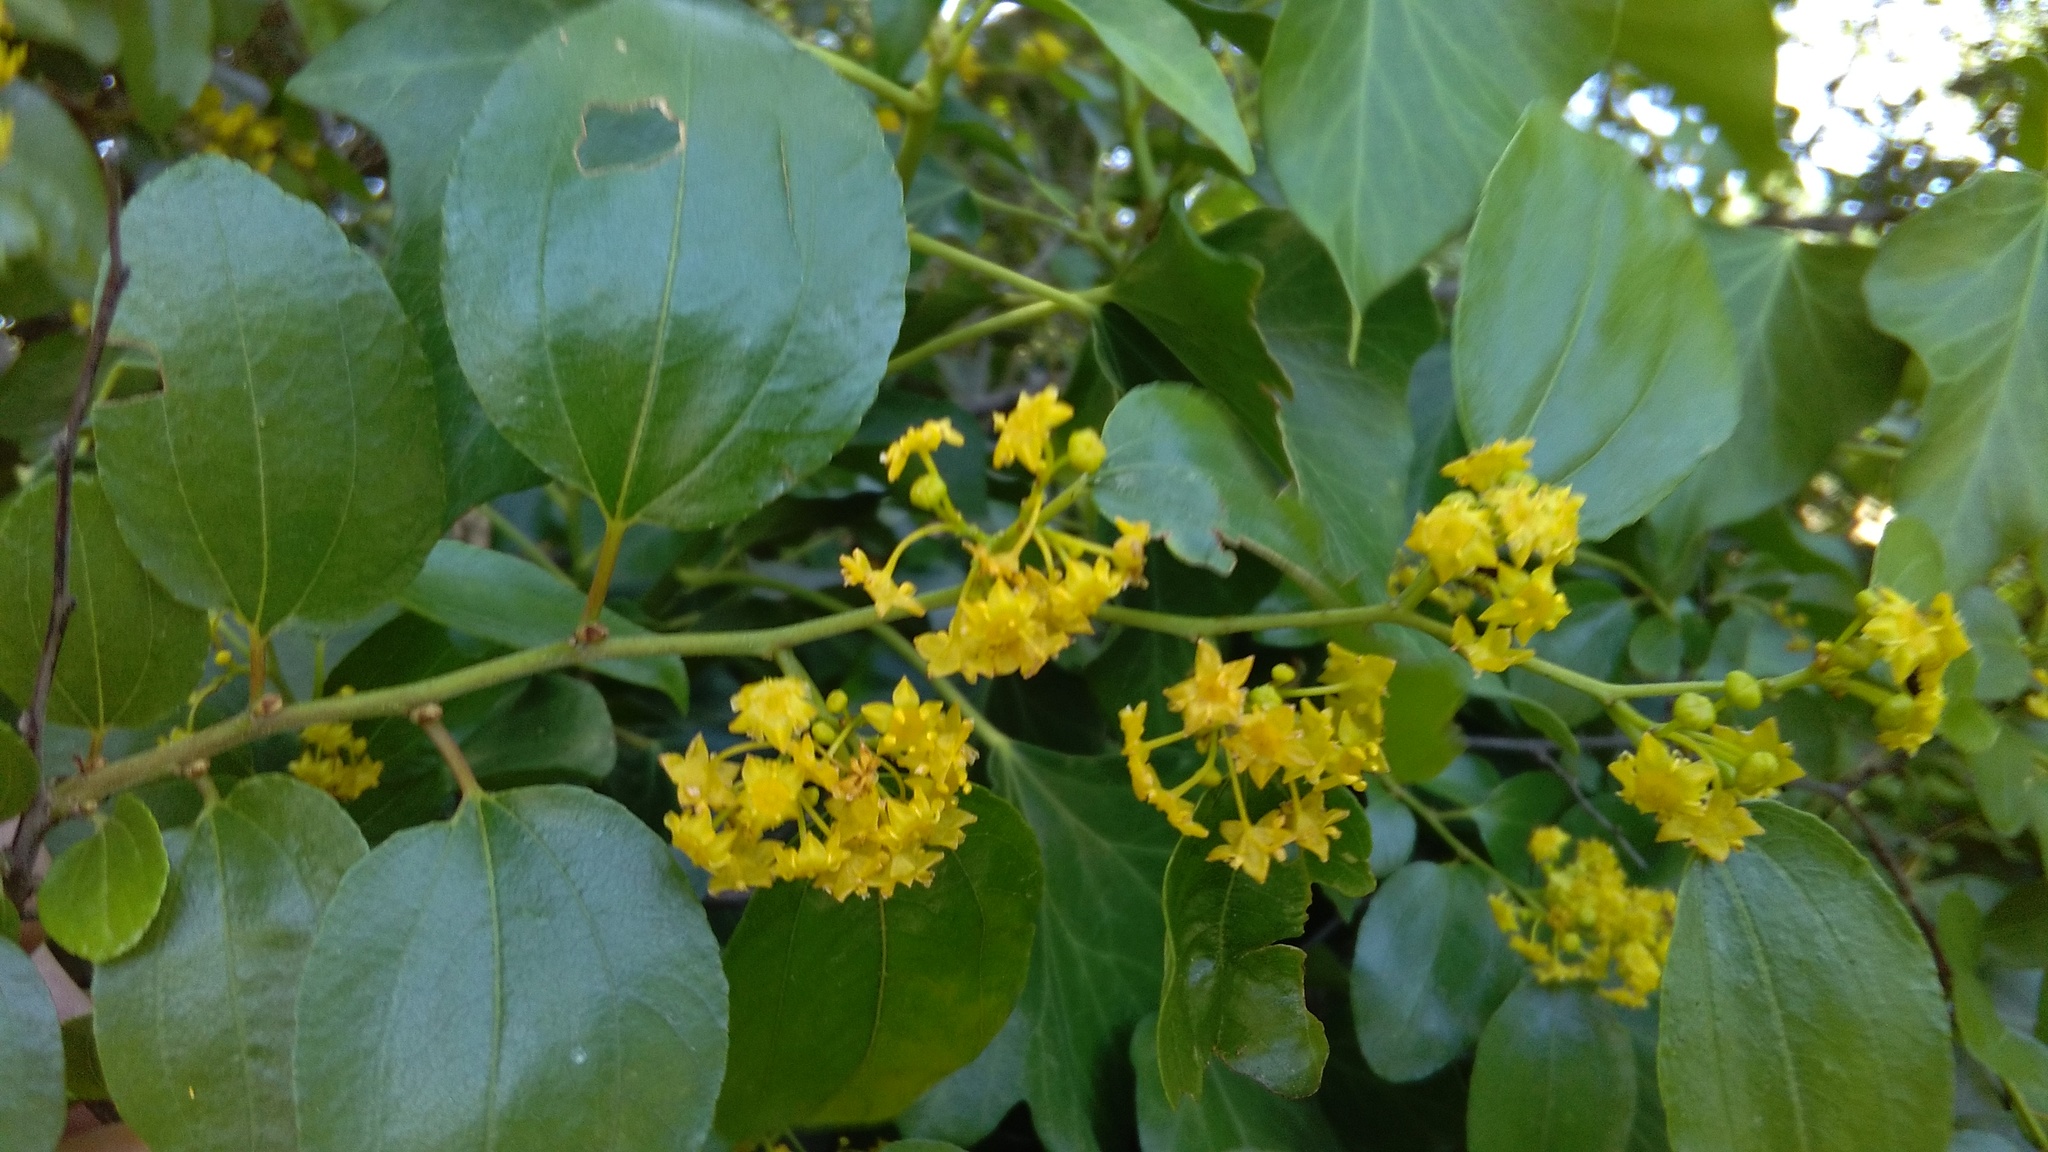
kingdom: Plantae
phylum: Tracheophyta
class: Magnoliopsida
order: Rosales
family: Rhamnaceae
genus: Paliurus
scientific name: Paliurus spina-christi
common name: Jeruselem thorn
